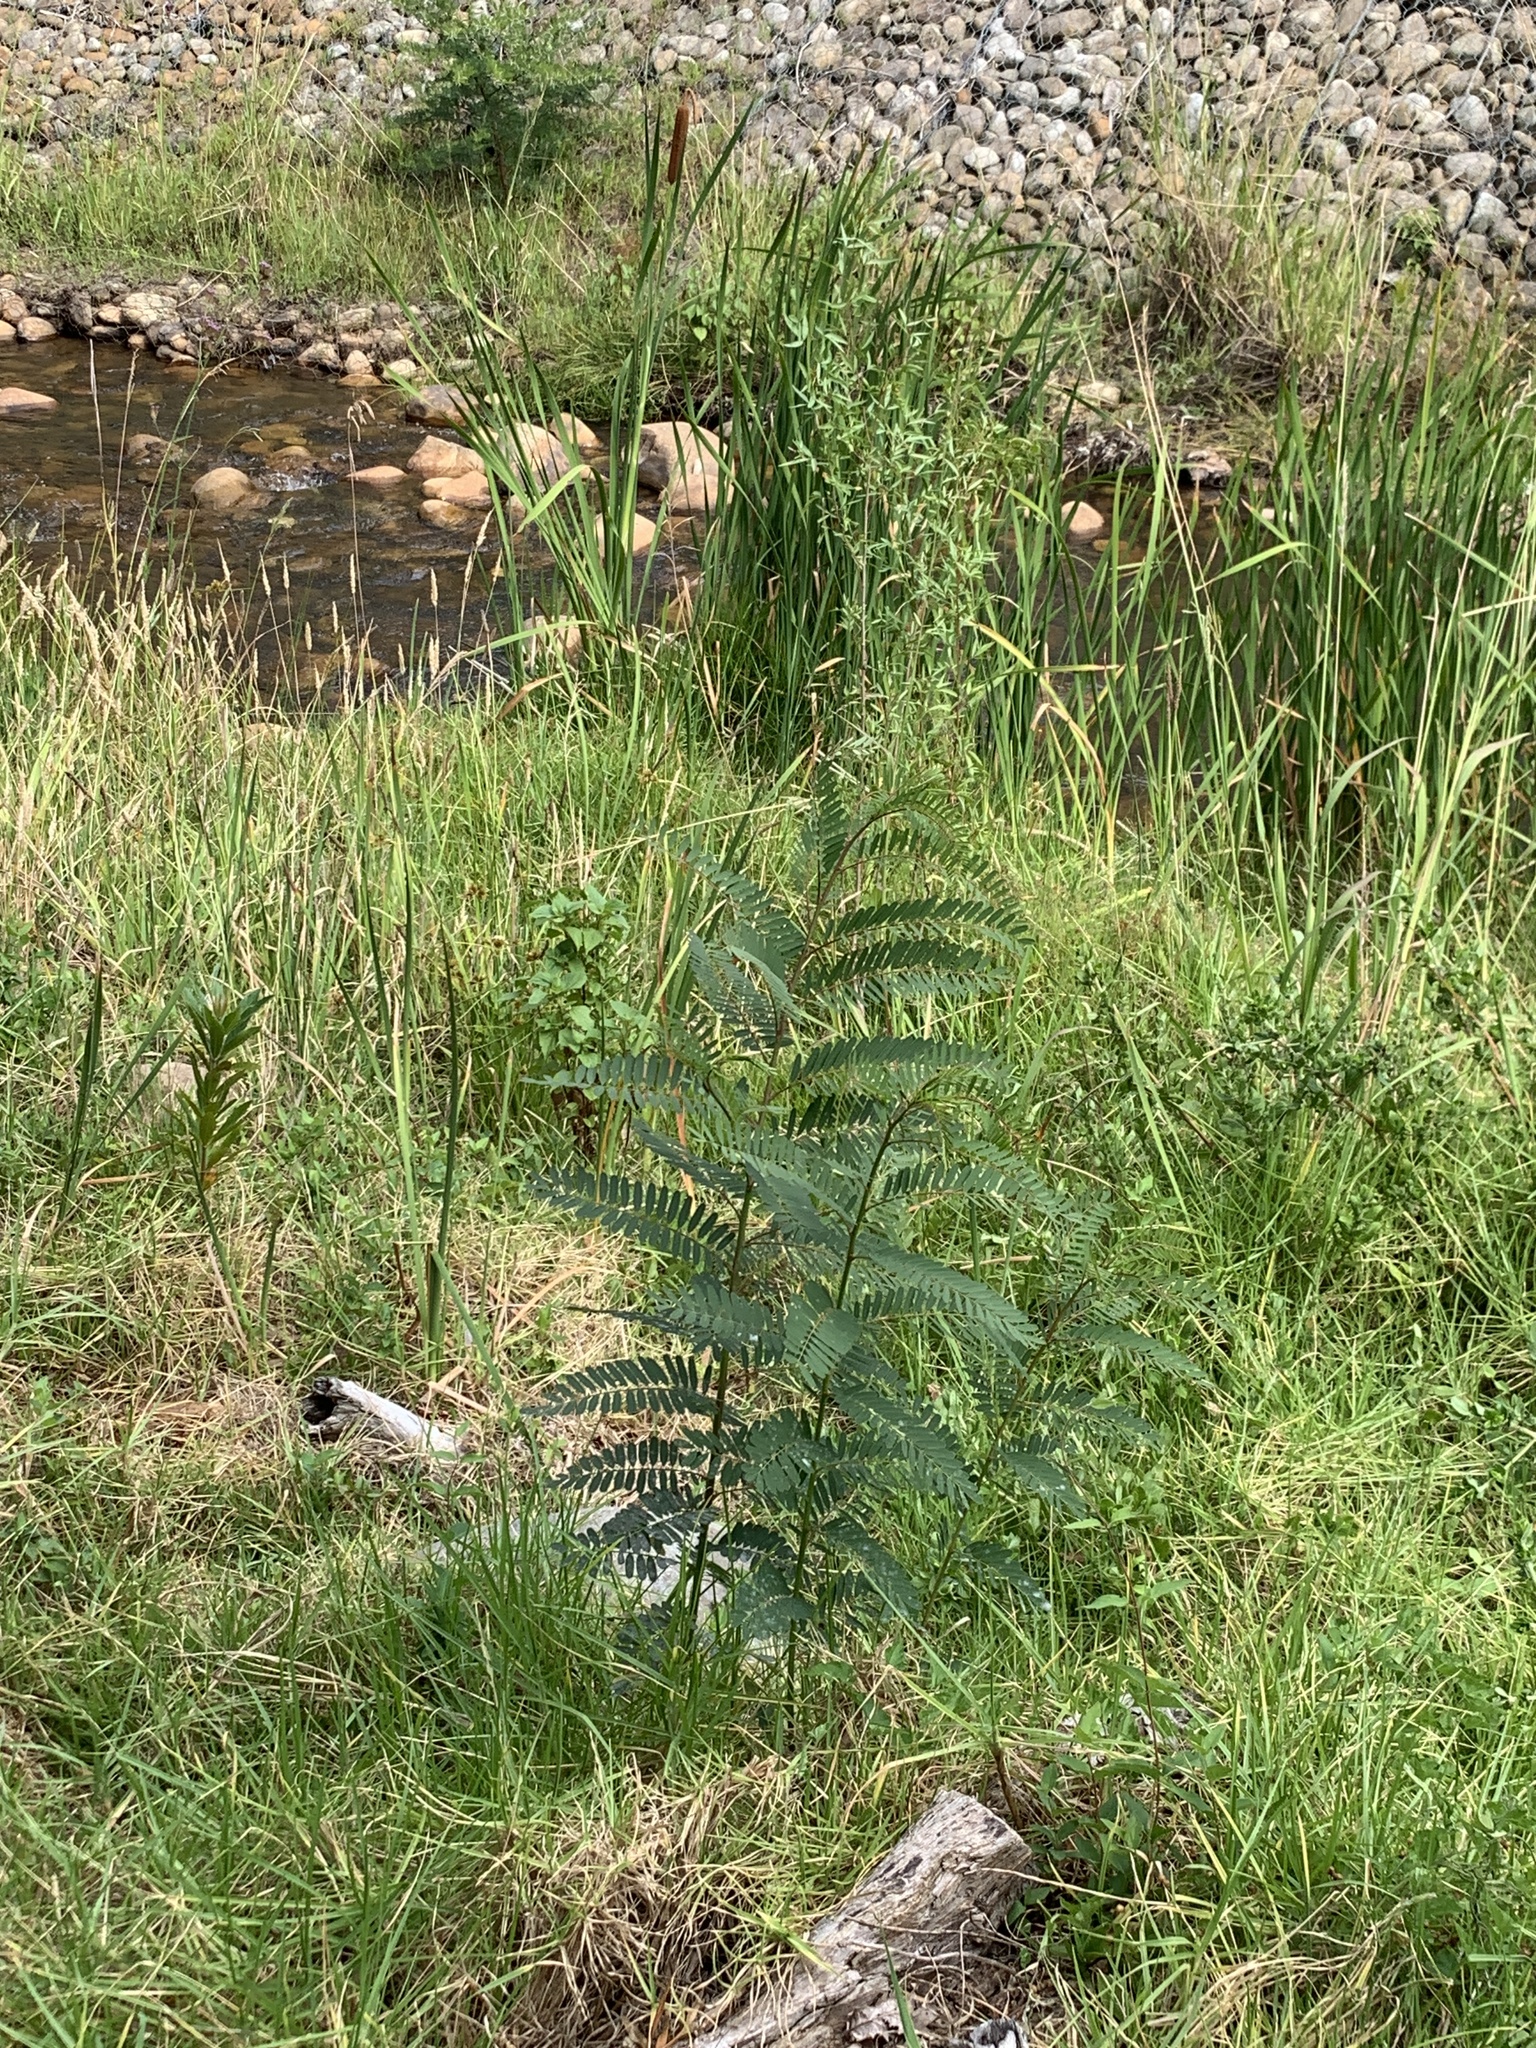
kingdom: Plantae
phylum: Tracheophyta
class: Magnoliopsida
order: Fabales
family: Fabaceae
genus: Sesbania
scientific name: Sesbania punicea
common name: Rattlebox
